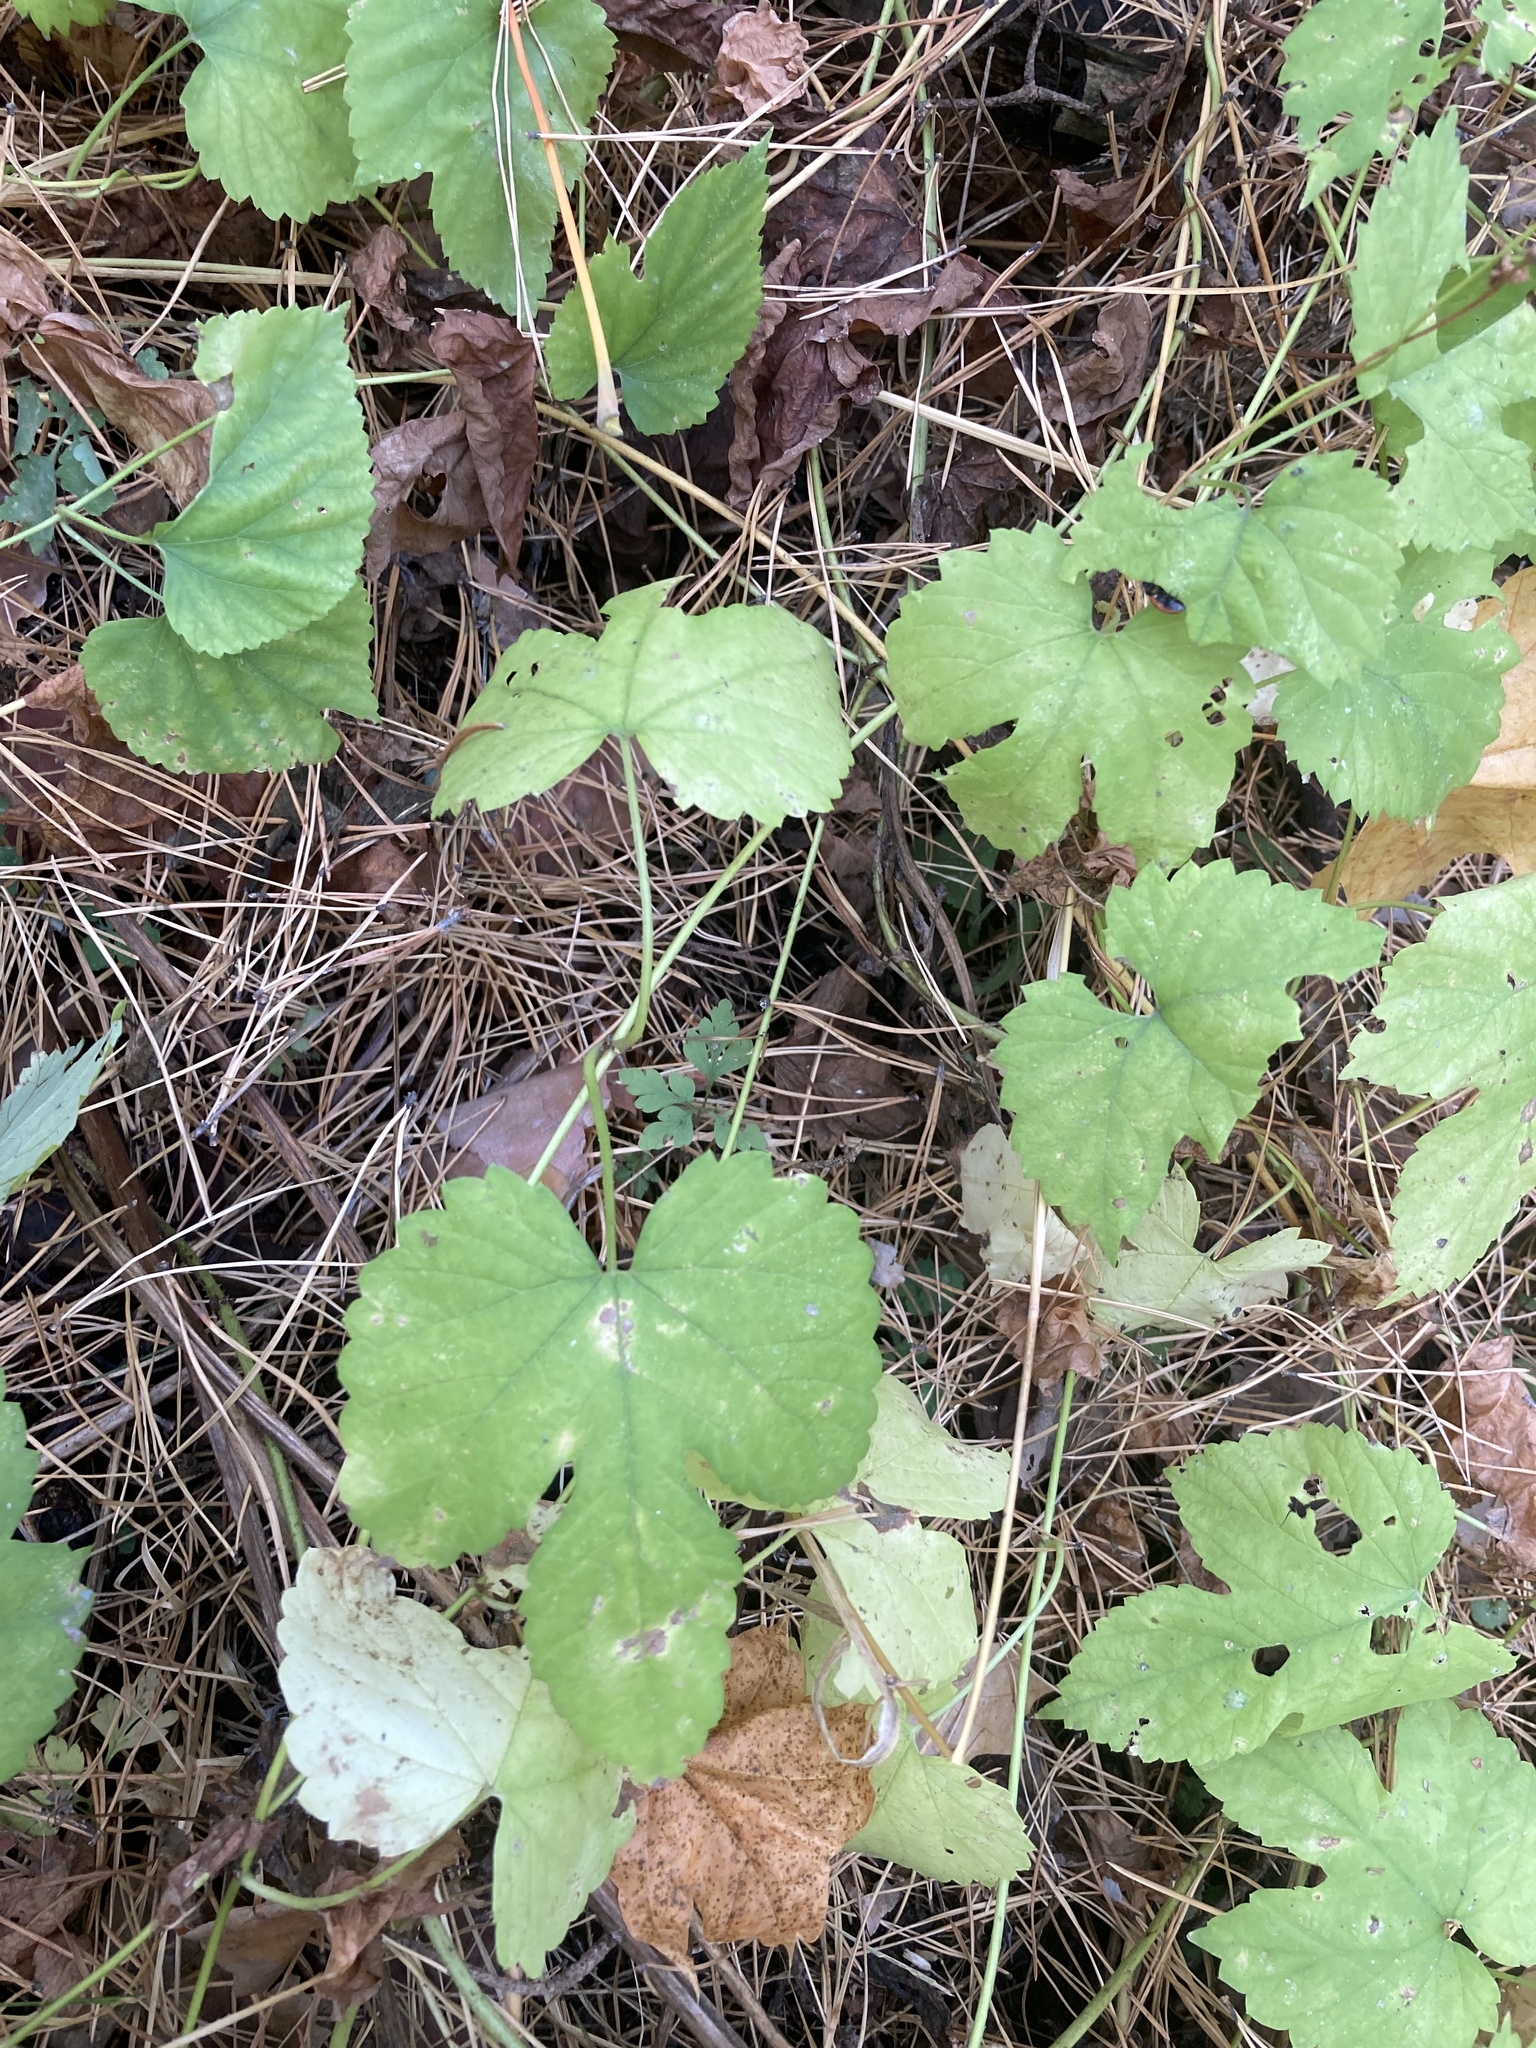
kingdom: Plantae
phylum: Tracheophyta
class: Magnoliopsida
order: Rosales
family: Cannabaceae
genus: Humulus
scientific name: Humulus lupulus
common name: Hop
